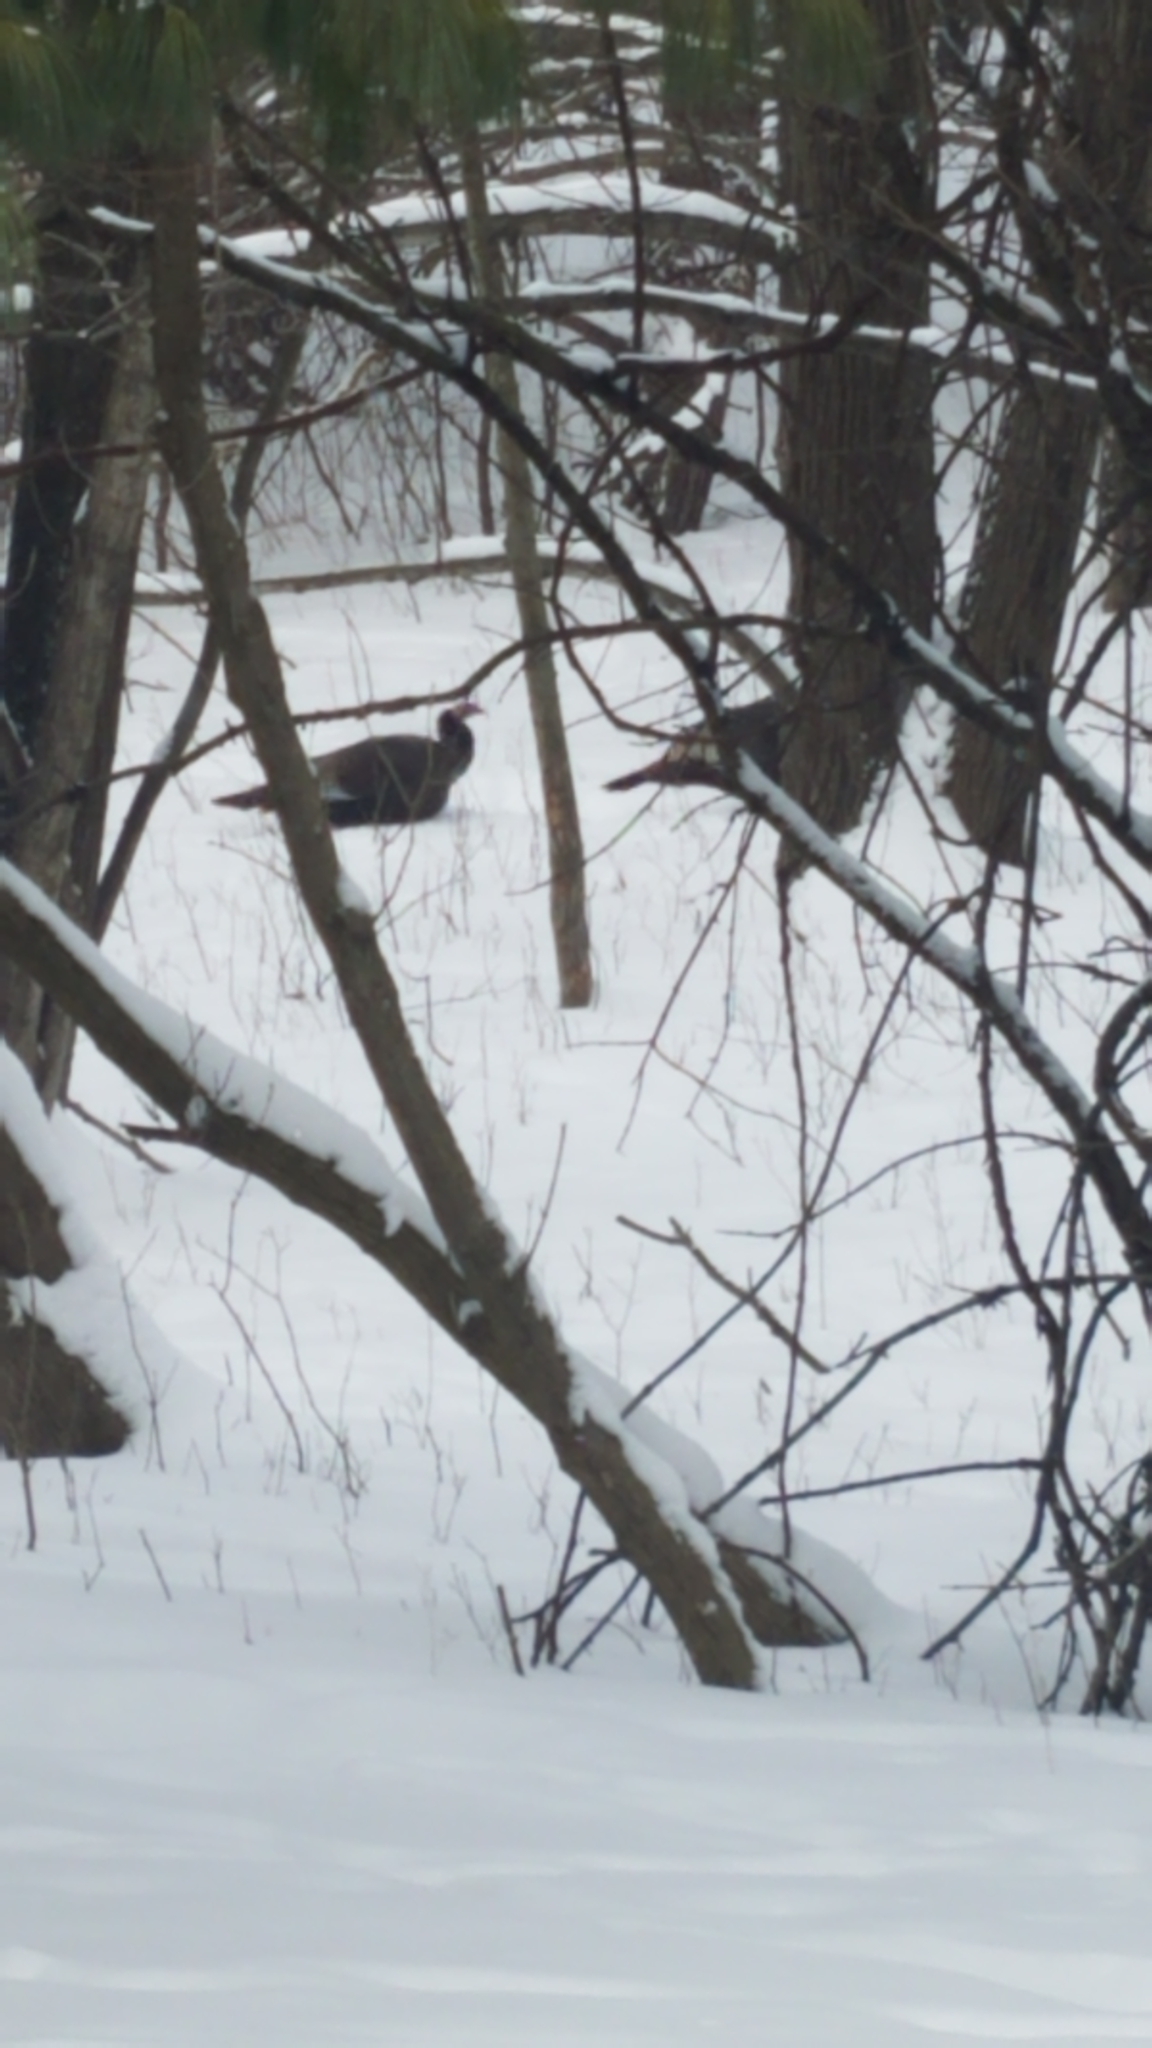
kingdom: Animalia
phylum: Chordata
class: Aves
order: Galliformes
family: Phasianidae
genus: Meleagris
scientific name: Meleagris gallopavo
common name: Wild turkey
